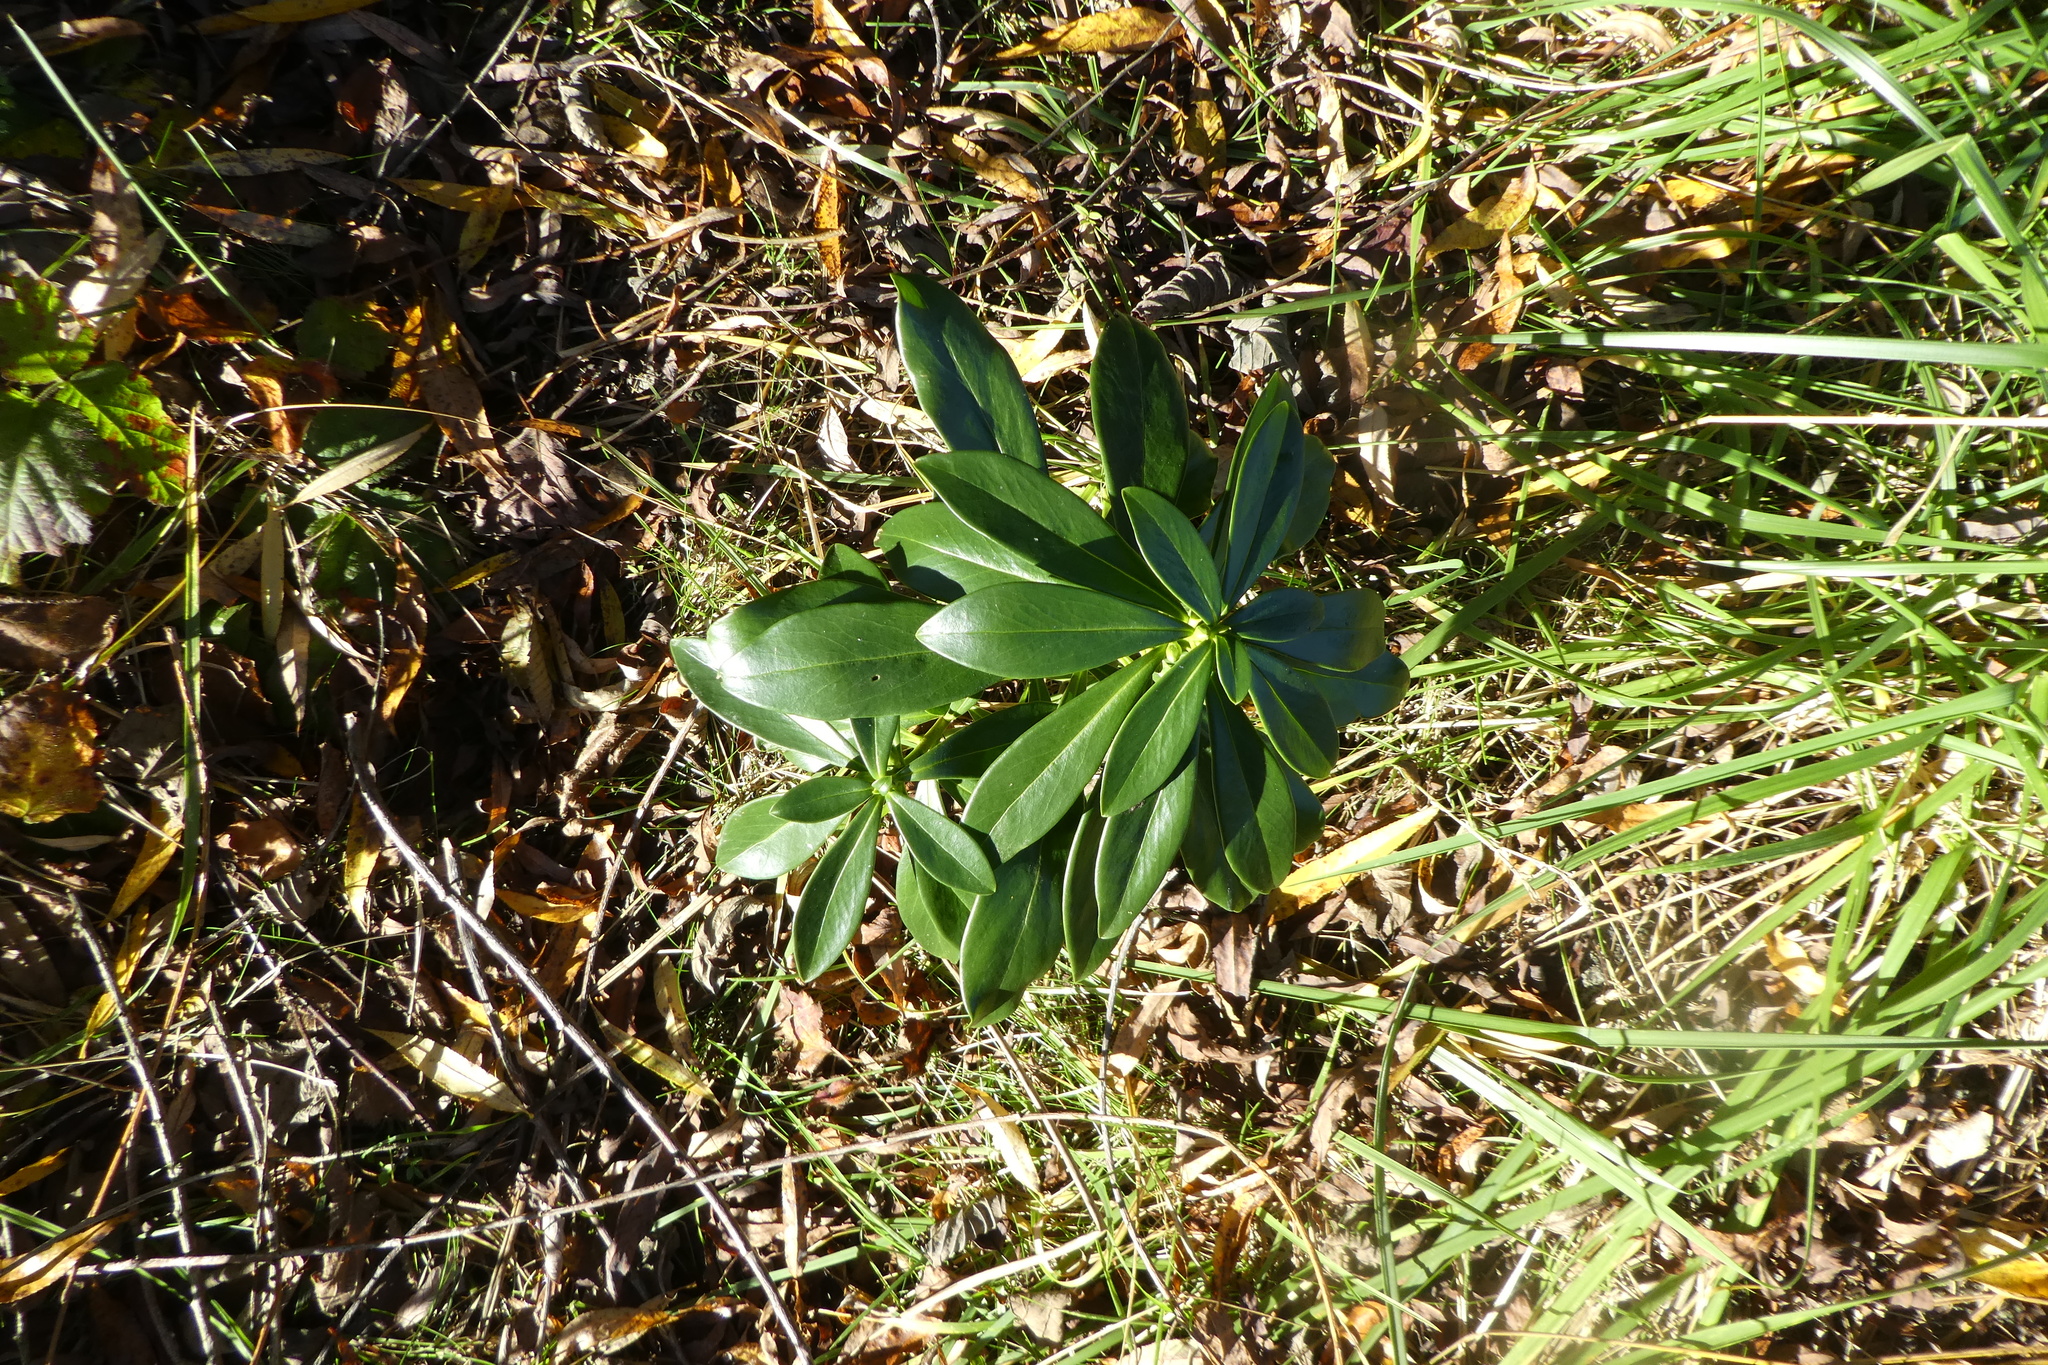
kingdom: Plantae
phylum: Tracheophyta
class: Magnoliopsida
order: Malvales
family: Thymelaeaceae
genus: Daphne
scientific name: Daphne laureola
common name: Spurge-laurel
